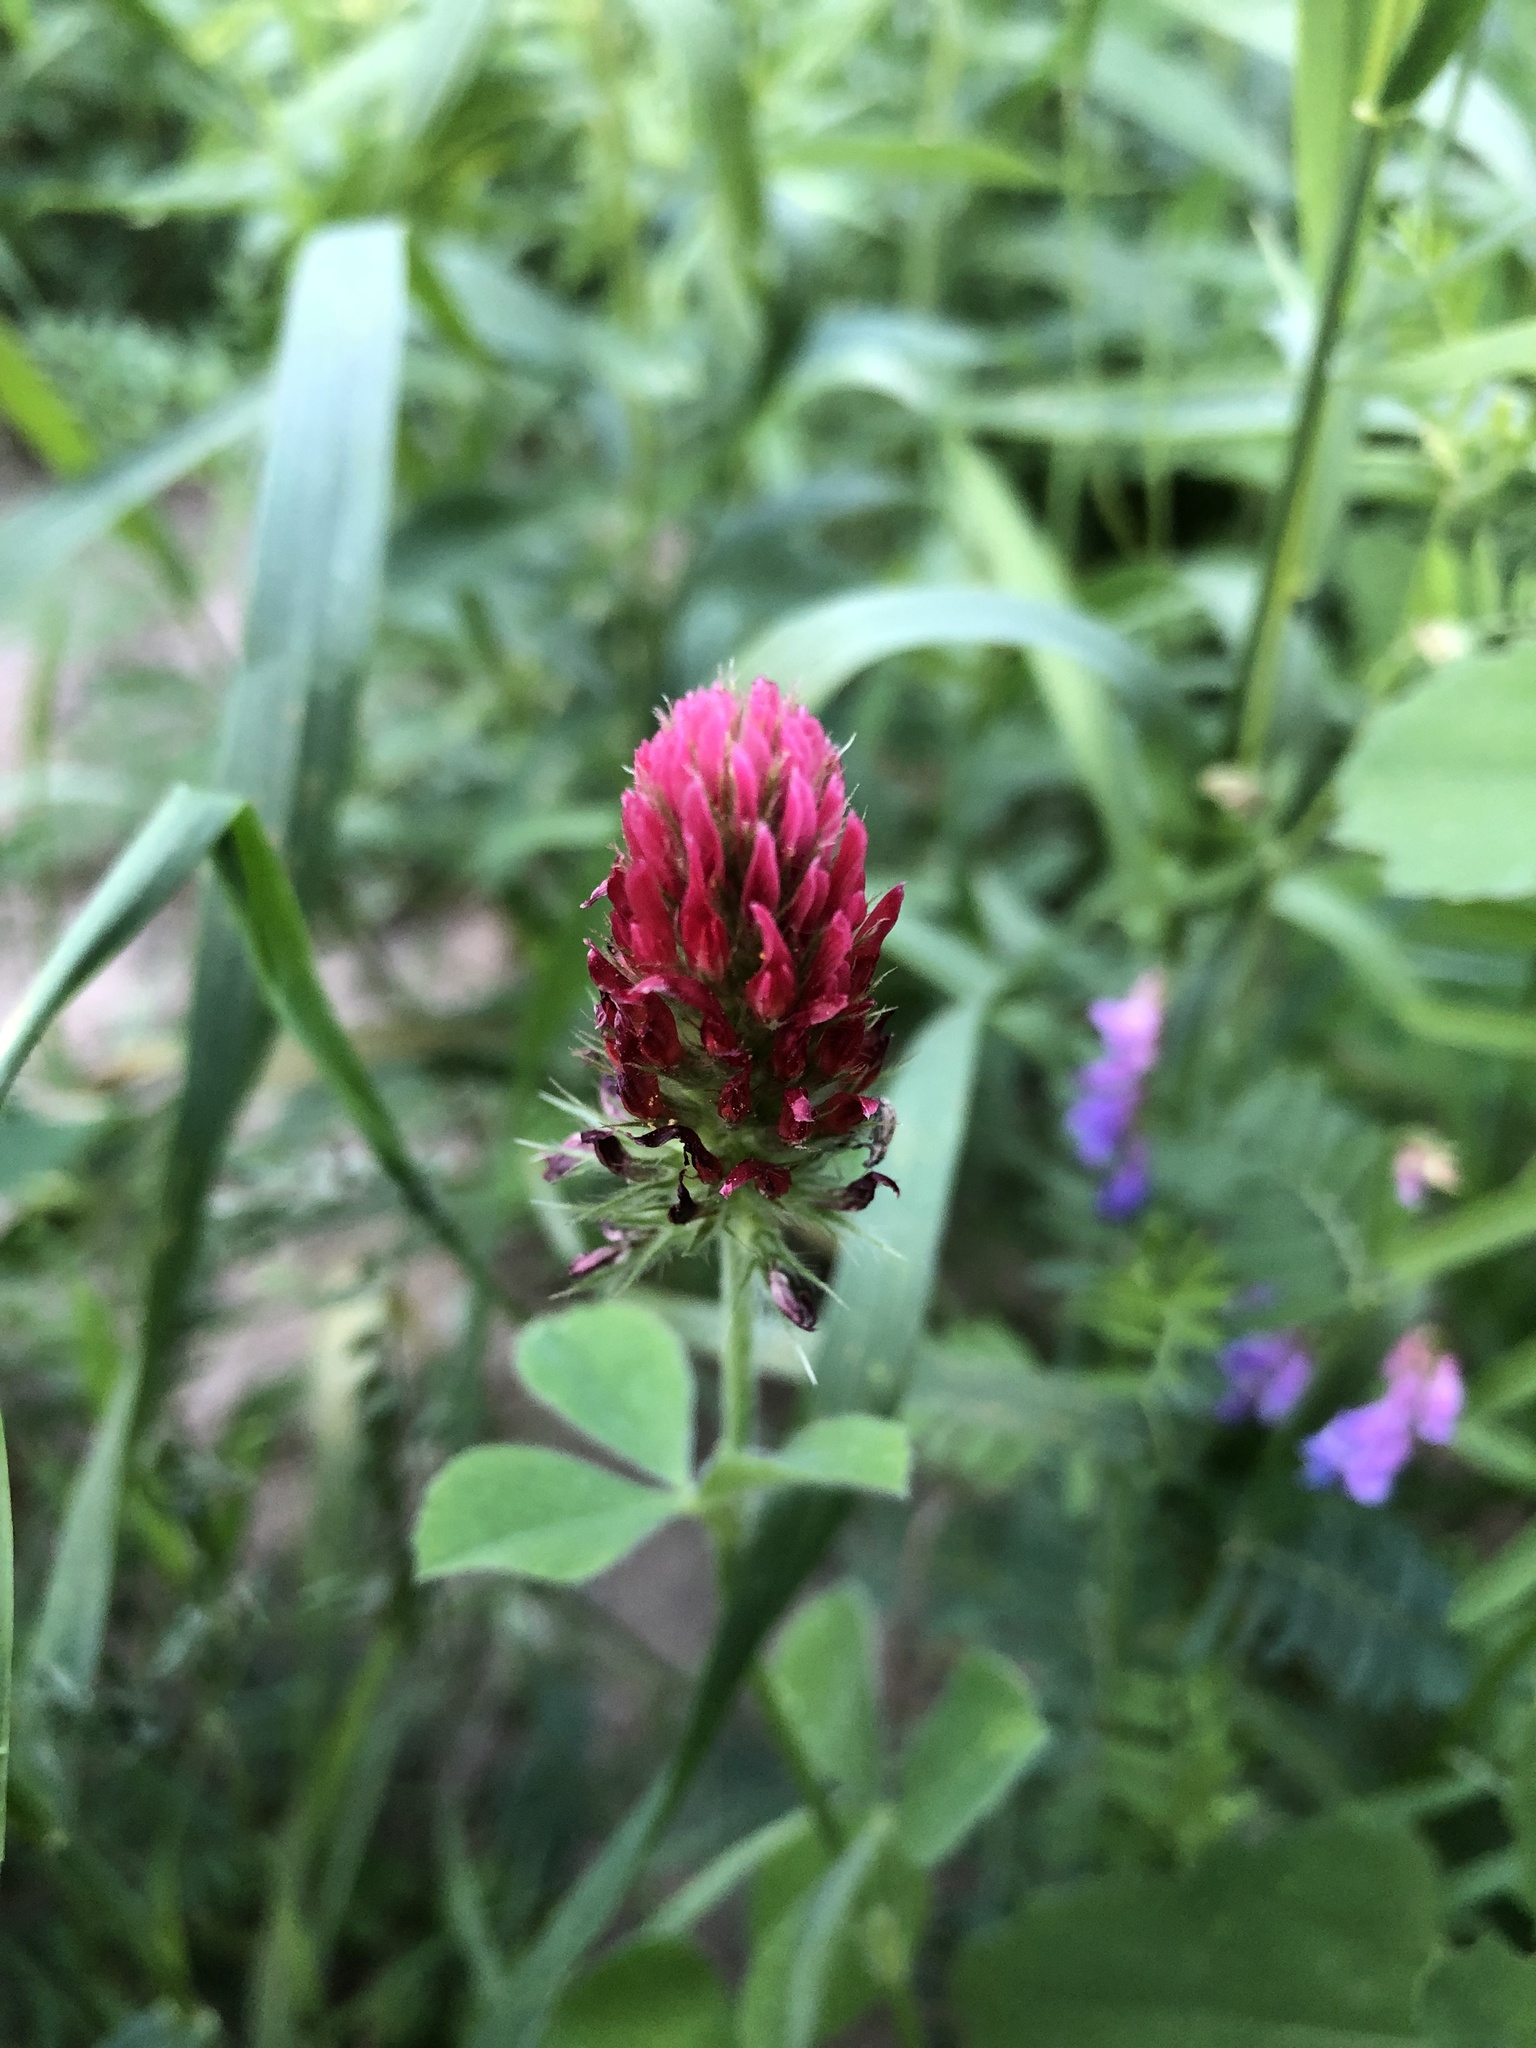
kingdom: Plantae
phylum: Tracheophyta
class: Magnoliopsida
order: Fabales
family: Fabaceae
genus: Trifolium
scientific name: Trifolium incarnatum
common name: Crimson clover
